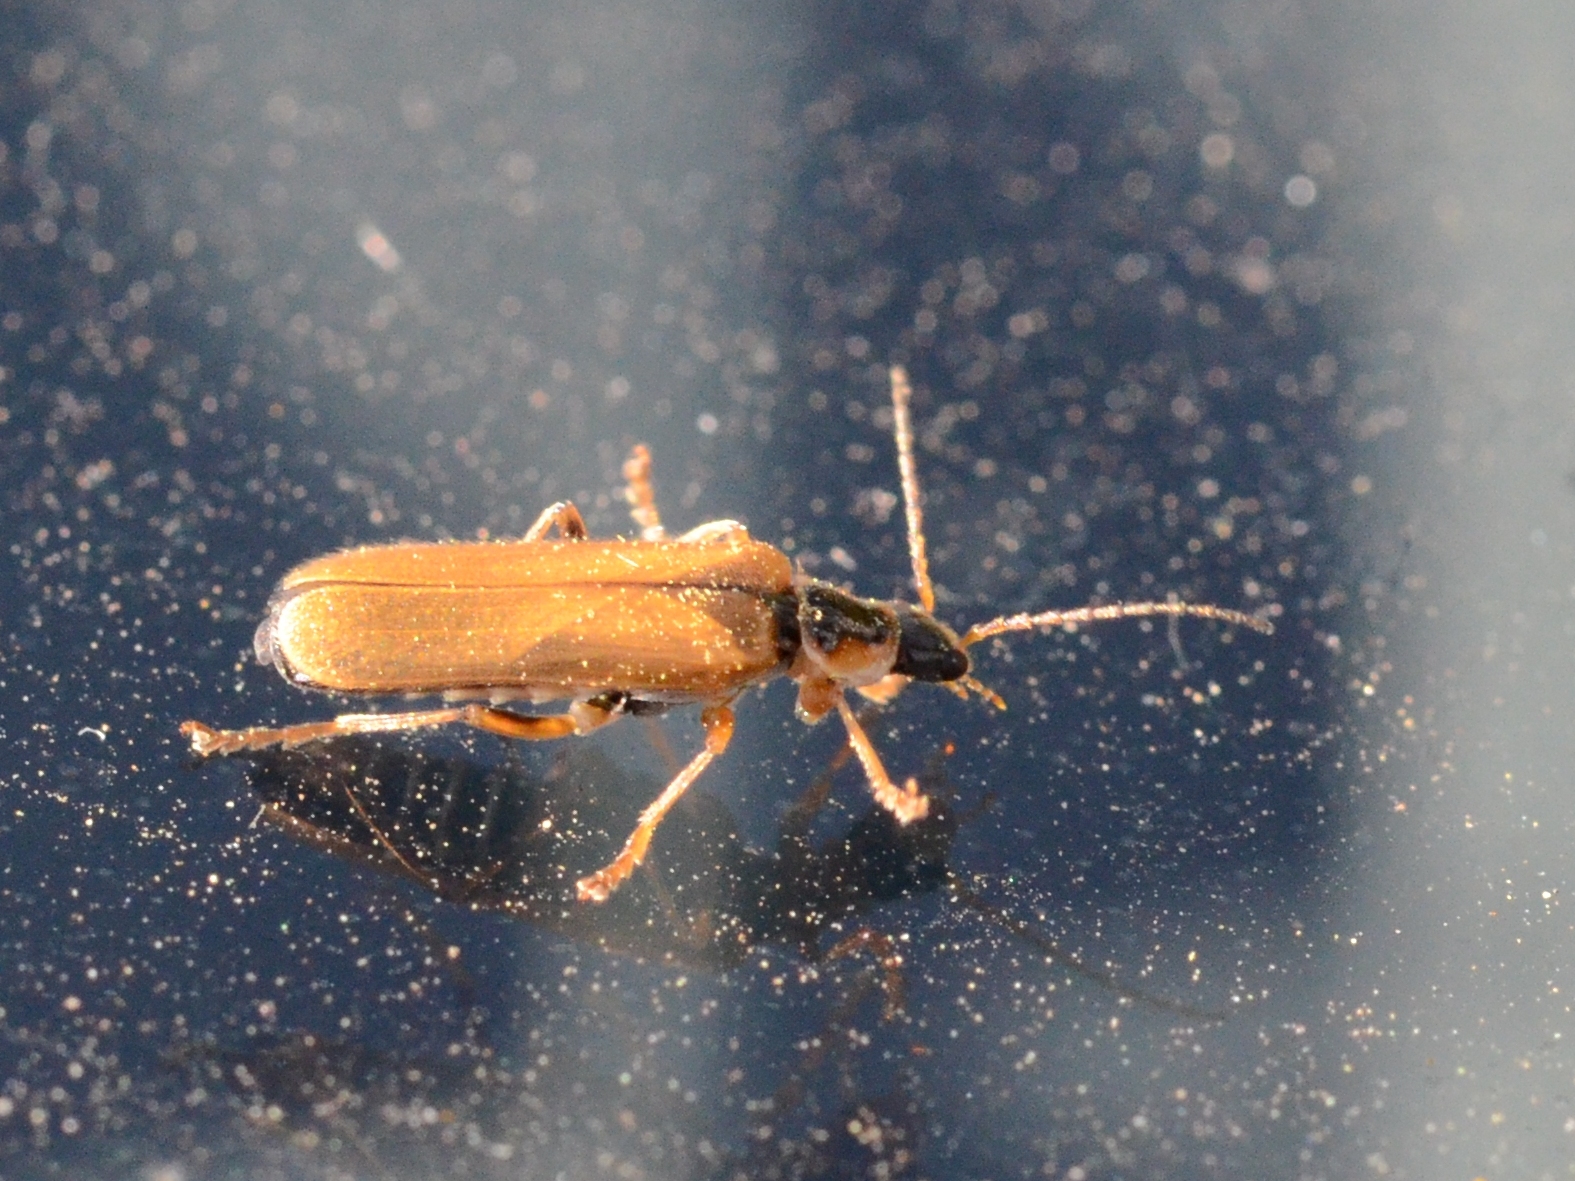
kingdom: Animalia
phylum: Arthropoda
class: Insecta
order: Coleoptera
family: Cantharidae
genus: Cantharis
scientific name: Cantharis decipiens
